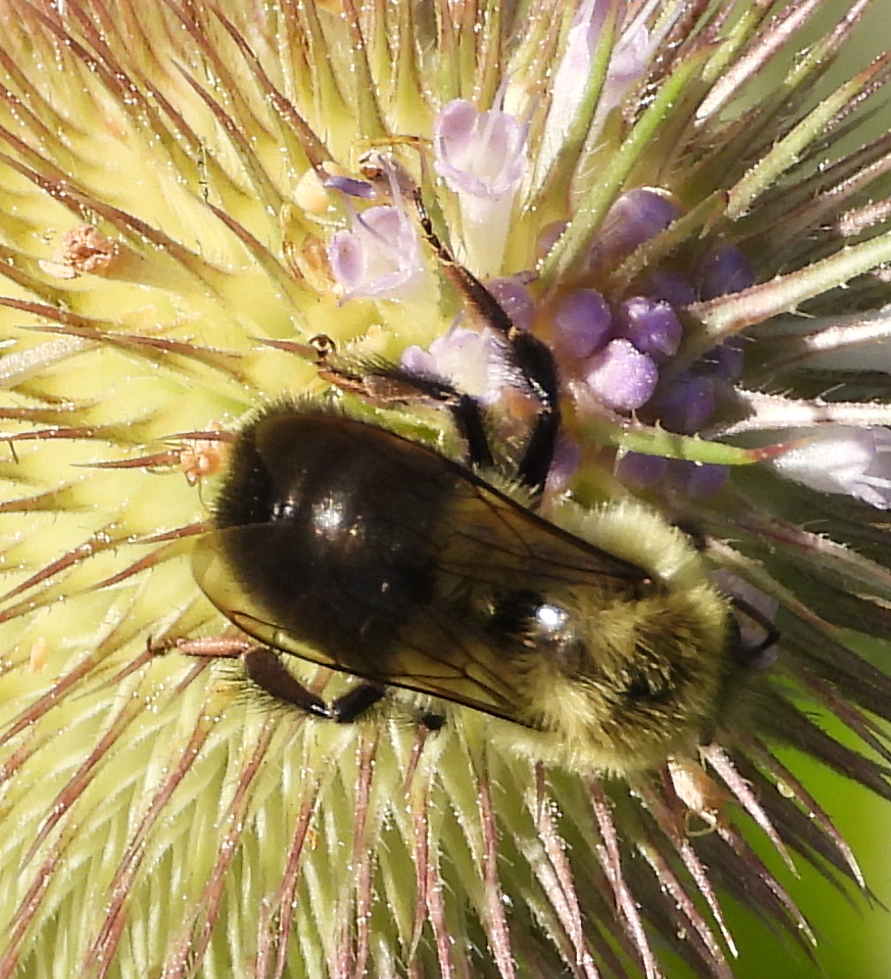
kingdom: Animalia
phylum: Arthropoda
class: Insecta
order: Hymenoptera
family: Apidae
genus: Bombus
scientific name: Bombus impatiens
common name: Common eastern bumble bee
